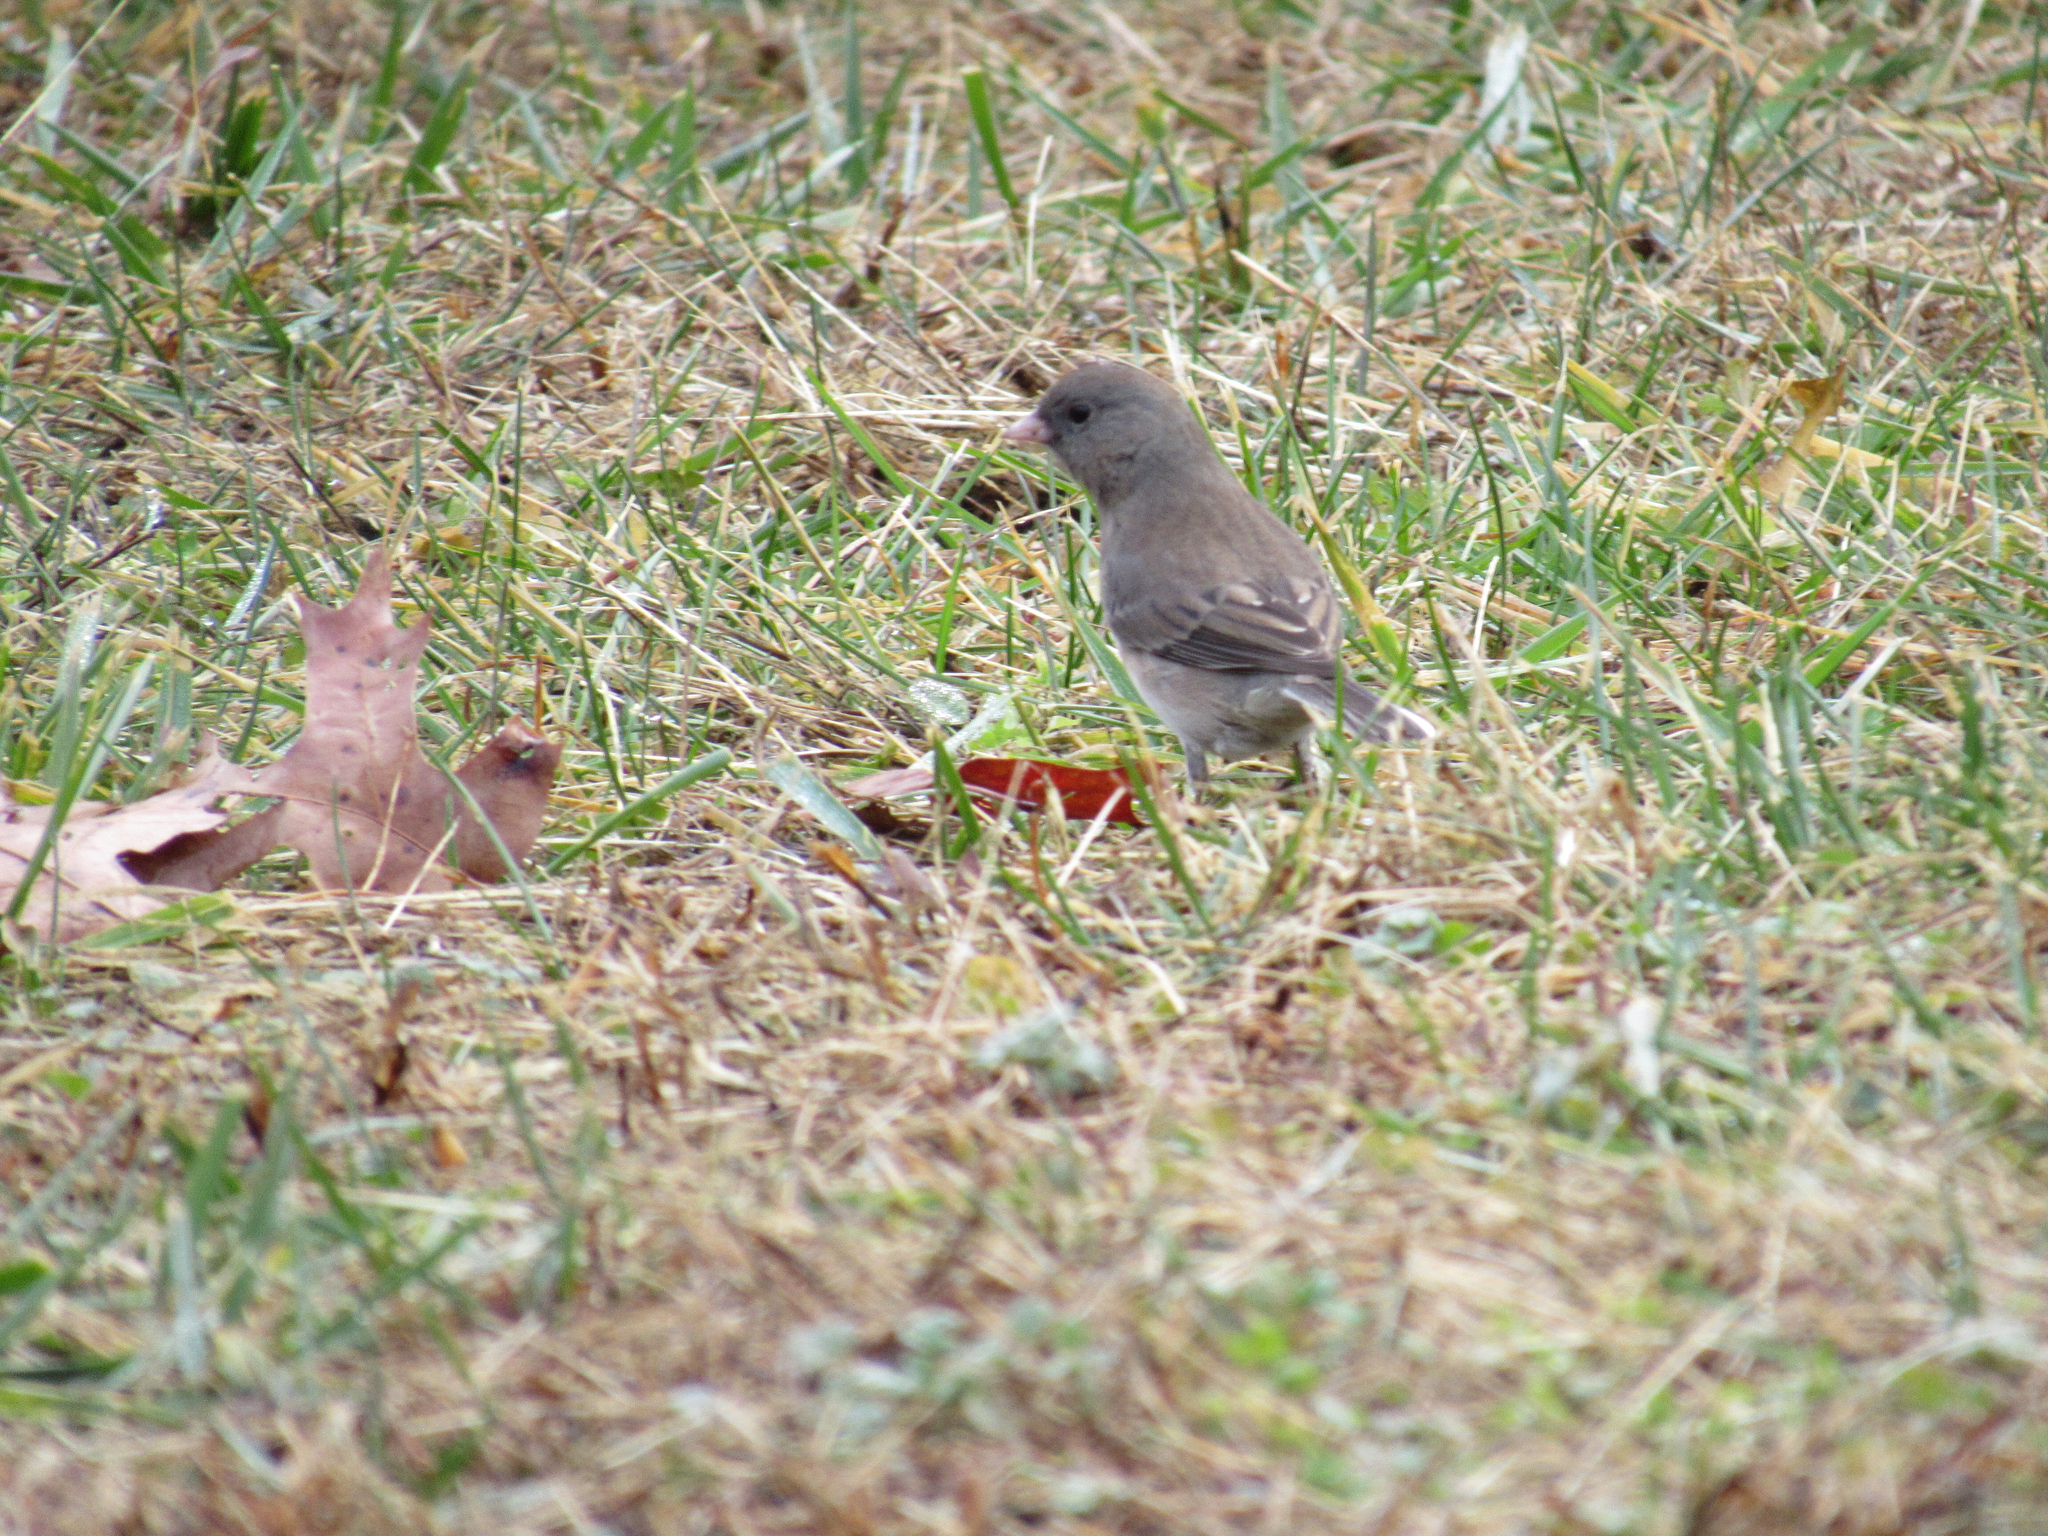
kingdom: Animalia
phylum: Chordata
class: Aves
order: Passeriformes
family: Passerellidae
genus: Junco
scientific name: Junco hyemalis
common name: Dark-eyed junco
